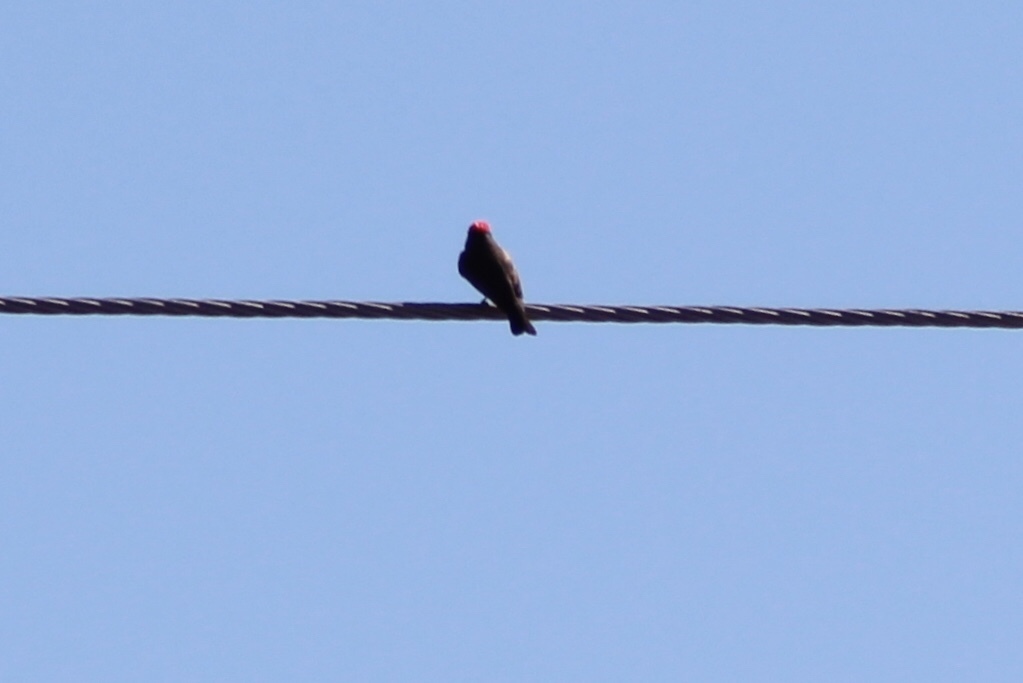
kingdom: Animalia
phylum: Chordata
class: Aves
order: Passeriformes
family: Tyrannidae
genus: Pyrocephalus
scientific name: Pyrocephalus rubinus
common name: Vermilion flycatcher
